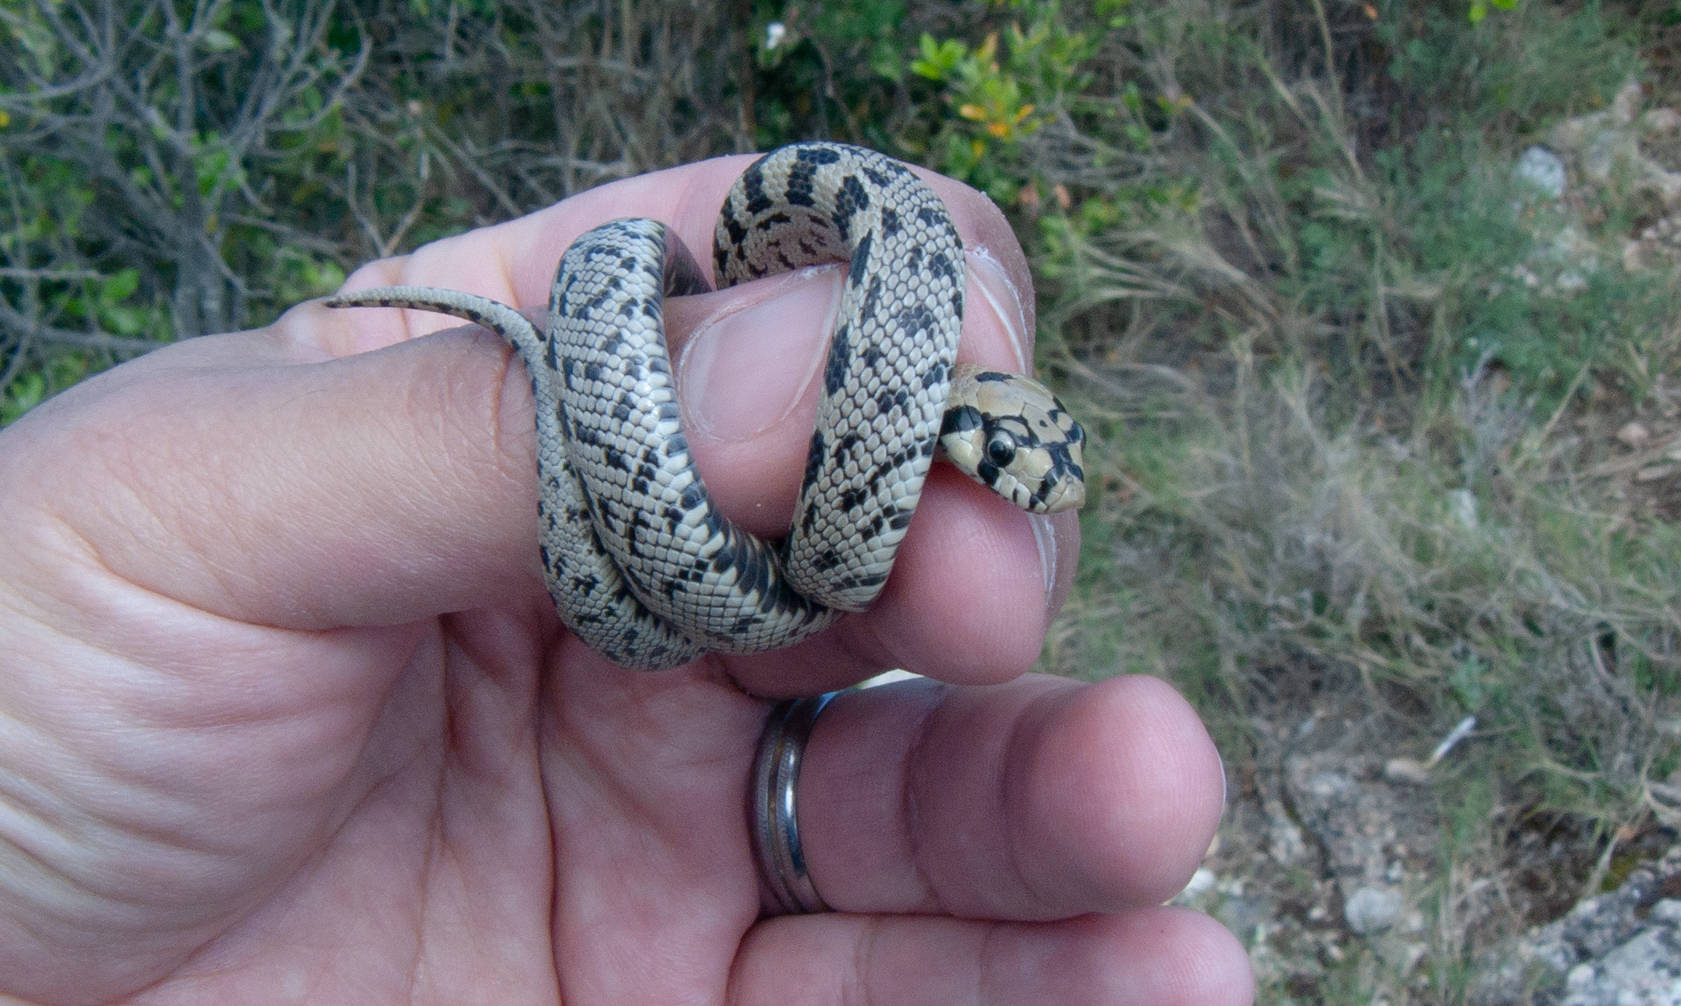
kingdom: Animalia
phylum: Chordata
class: Squamata
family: Colubridae
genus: Zamenis
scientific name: Zamenis scalaris
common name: Ladder snakes
